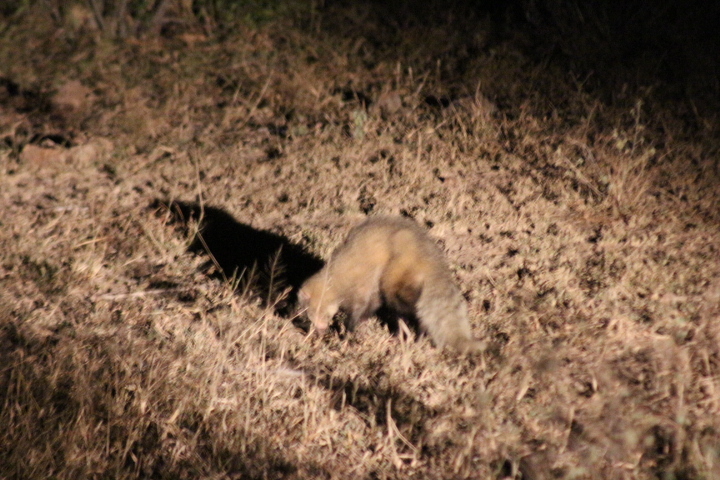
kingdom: Animalia
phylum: Chordata
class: Mammalia
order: Carnivora
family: Herpestidae
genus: Ichneumia
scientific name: Ichneumia albicauda
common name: White-tailed mongoose
